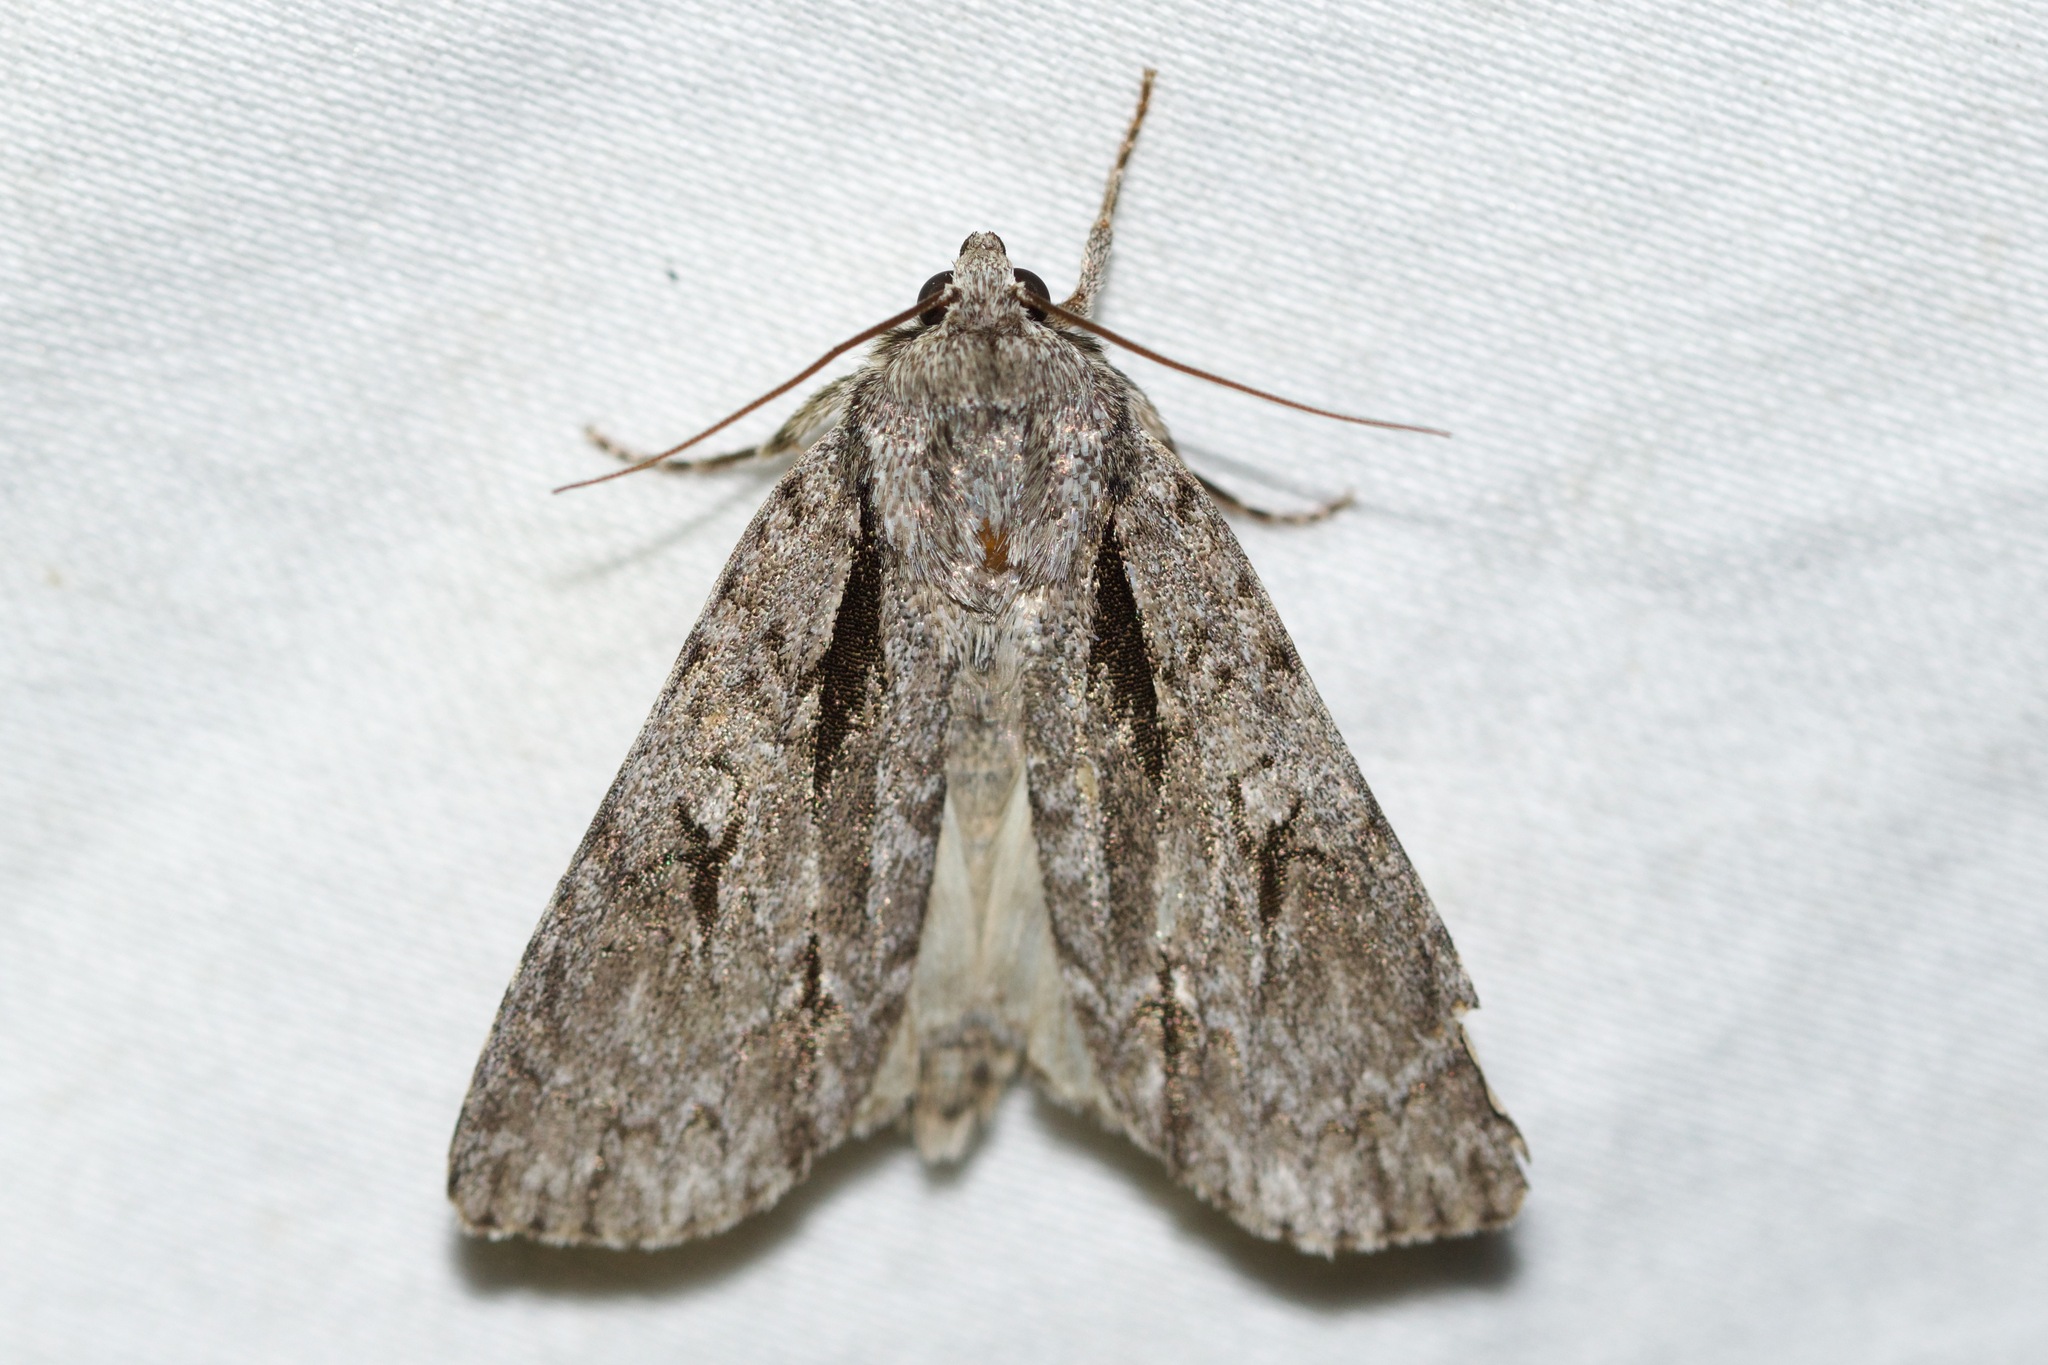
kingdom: Animalia
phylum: Arthropoda
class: Insecta
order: Lepidoptera
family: Noctuidae
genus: Acronicta
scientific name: Acronicta hasta
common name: Cherry dagger
